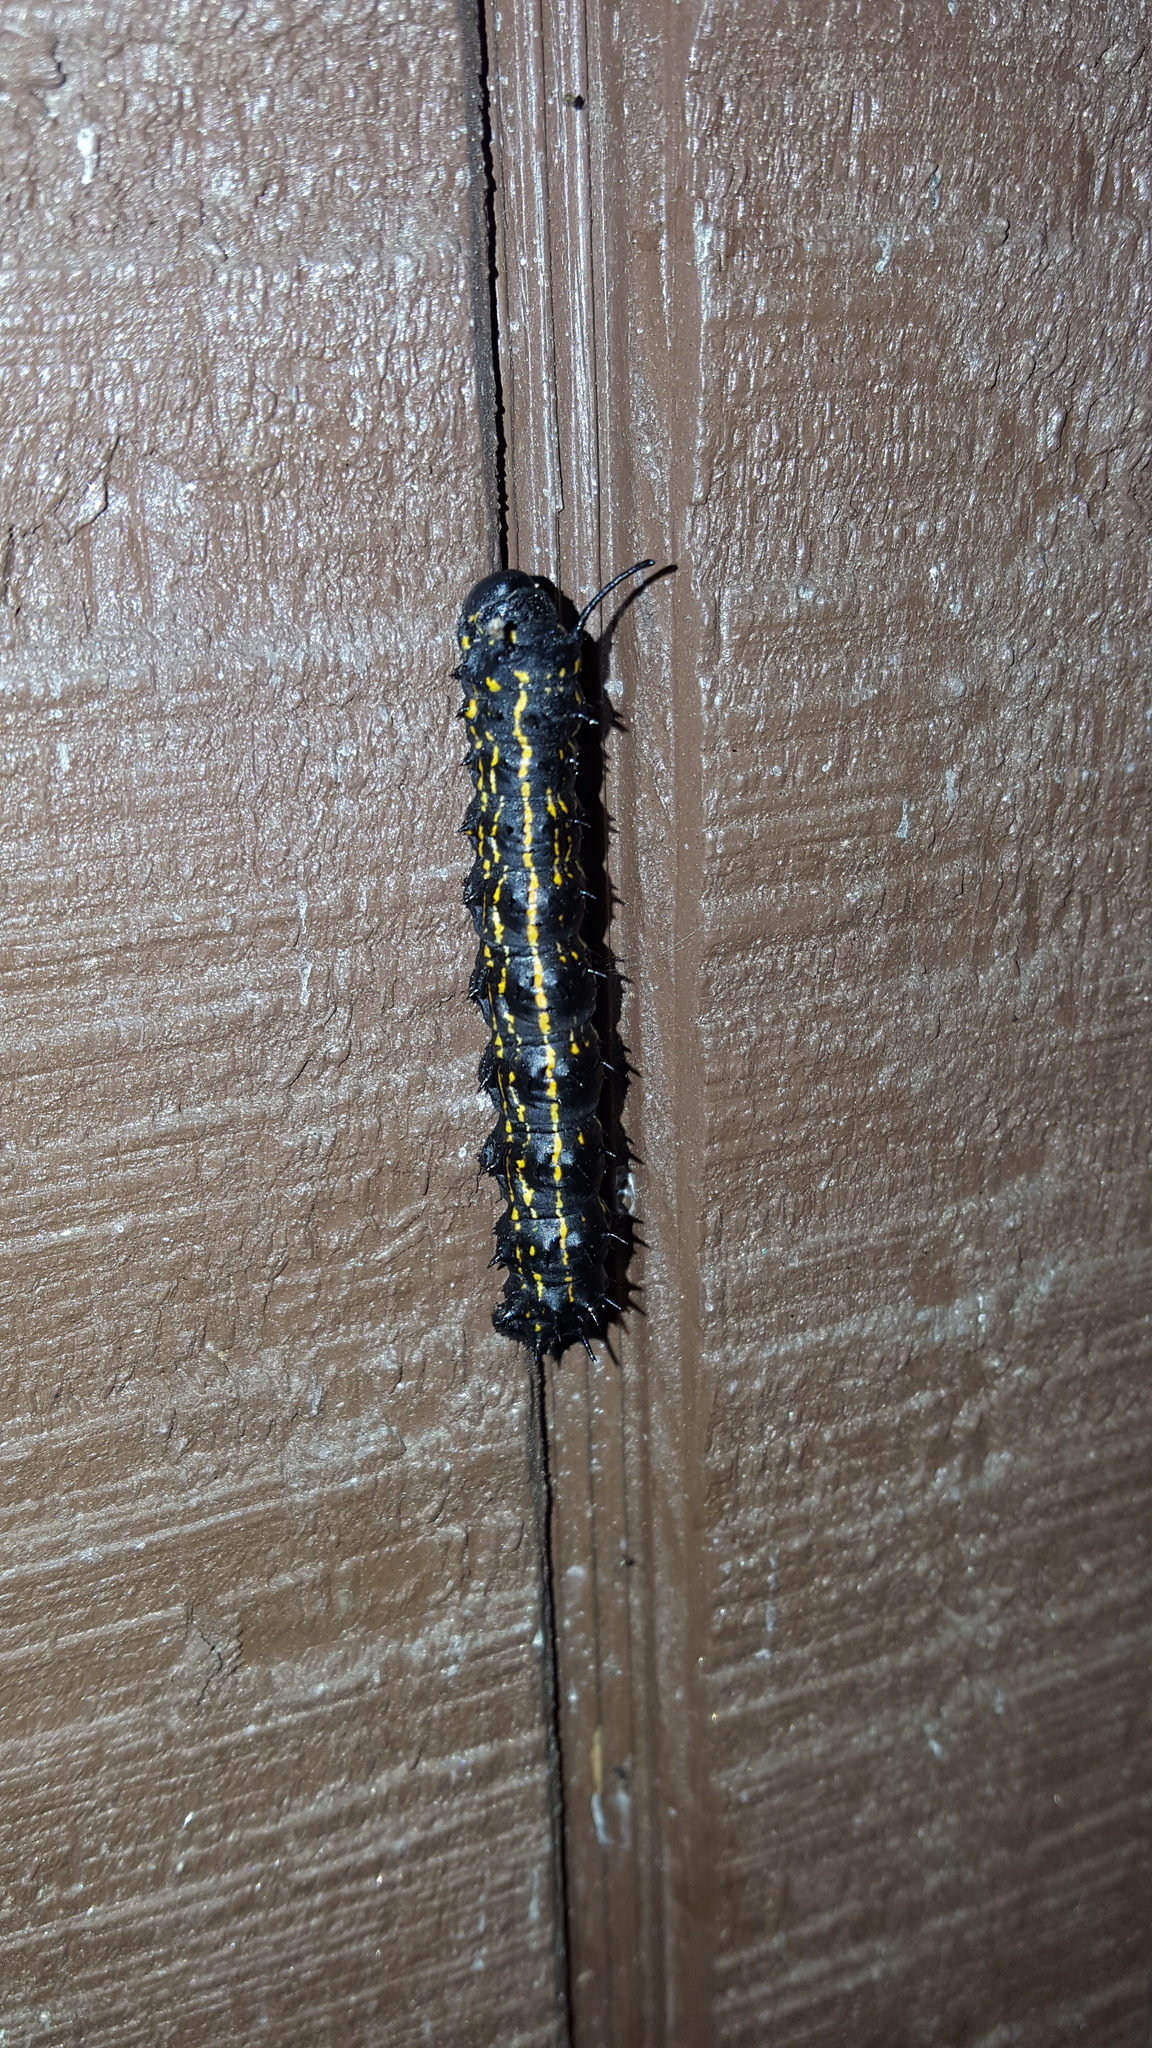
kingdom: Animalia
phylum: Arthropoda
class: Insecta
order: Lepidoptera
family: Saturniidae
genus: Anisota
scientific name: Anisota peigleri
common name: Peigler's oakworm moth
